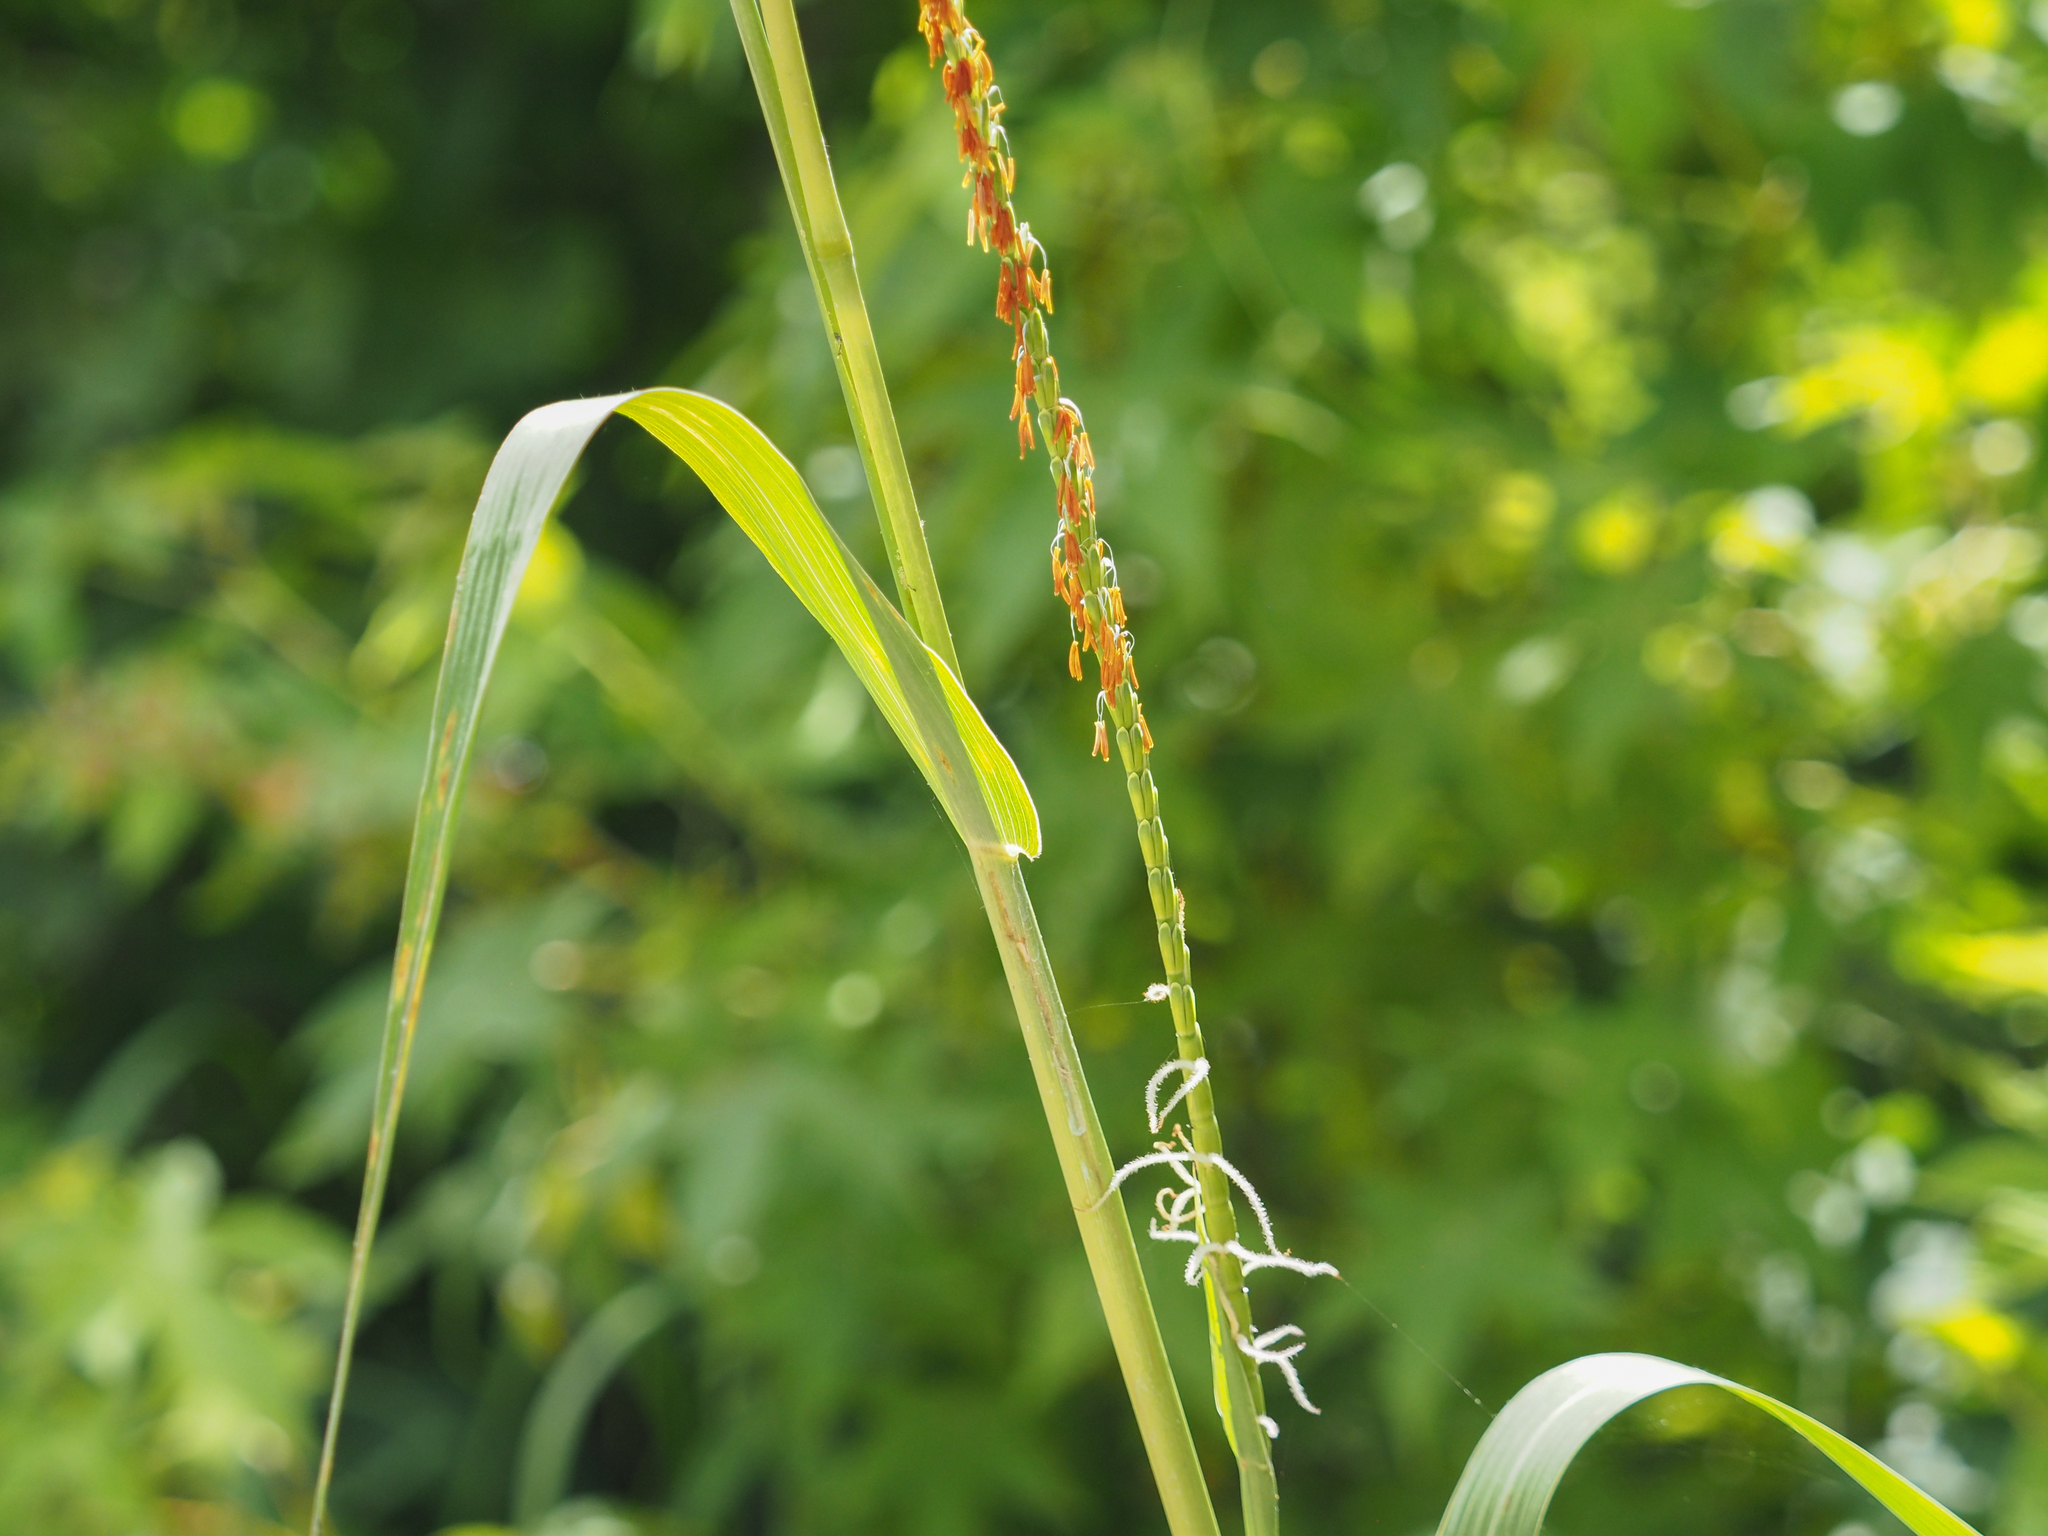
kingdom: Plantae
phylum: Tracheophyta
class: Liliopsida
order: Poales
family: Poaceae
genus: Tripsacum
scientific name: Tripsacum dactyloides
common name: Buffalo-grass
